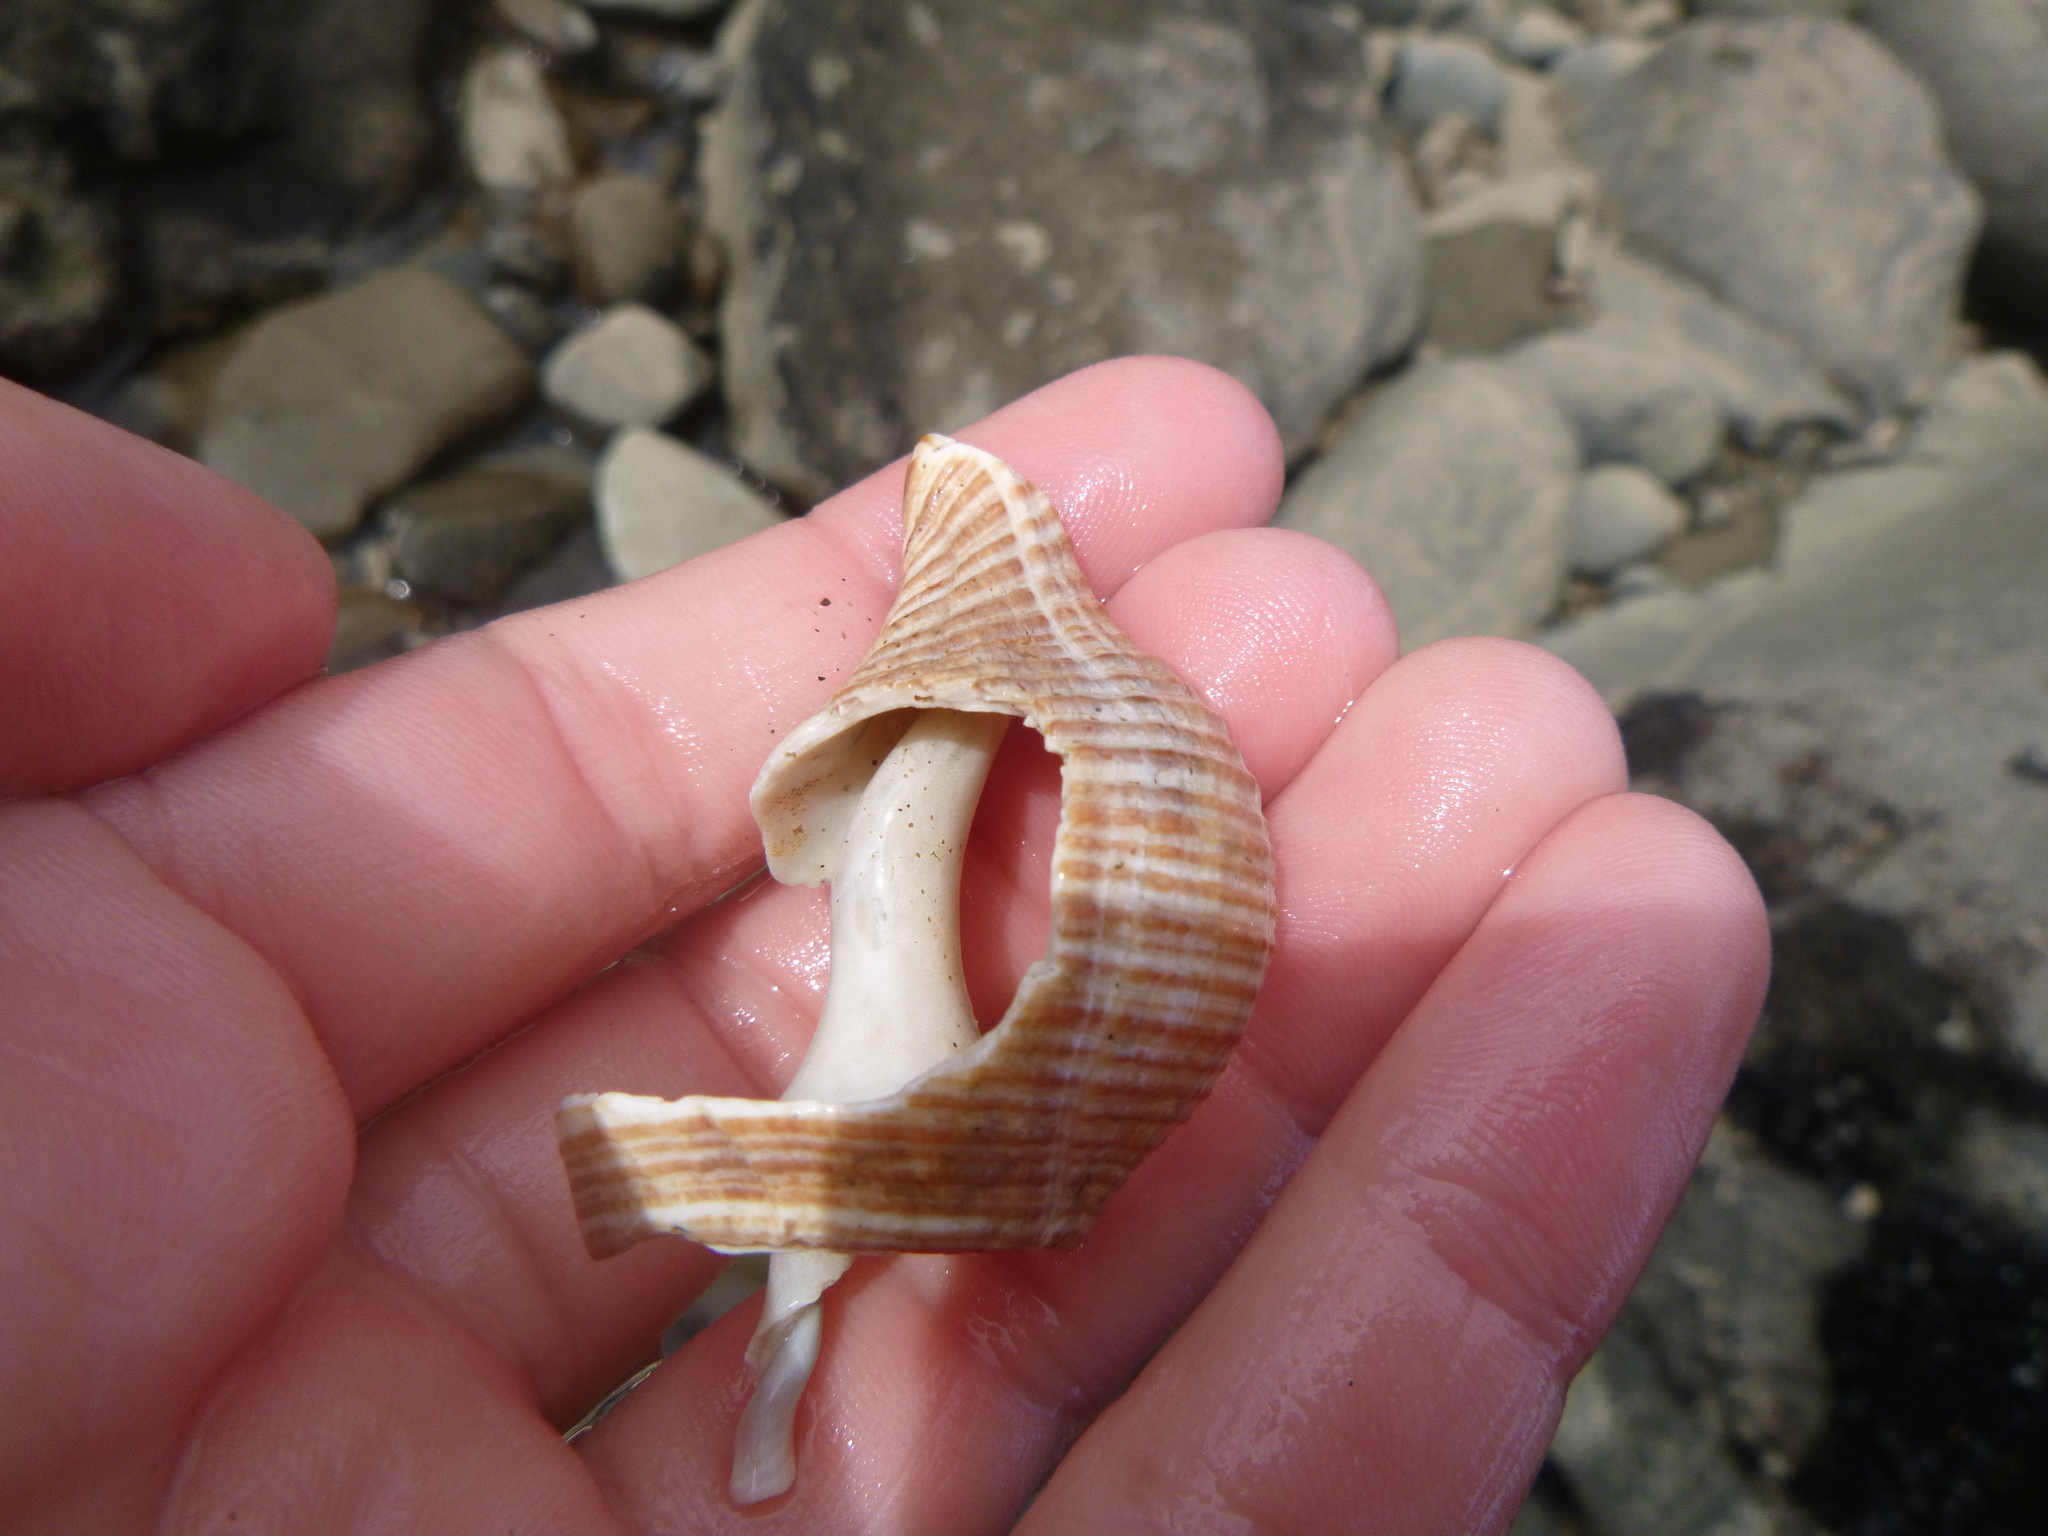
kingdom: Animalia
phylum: Mollusca
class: Gastropoda
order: Neogastropoda
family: Austrosiphonidae
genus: Penion
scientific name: Penion sulcatus
